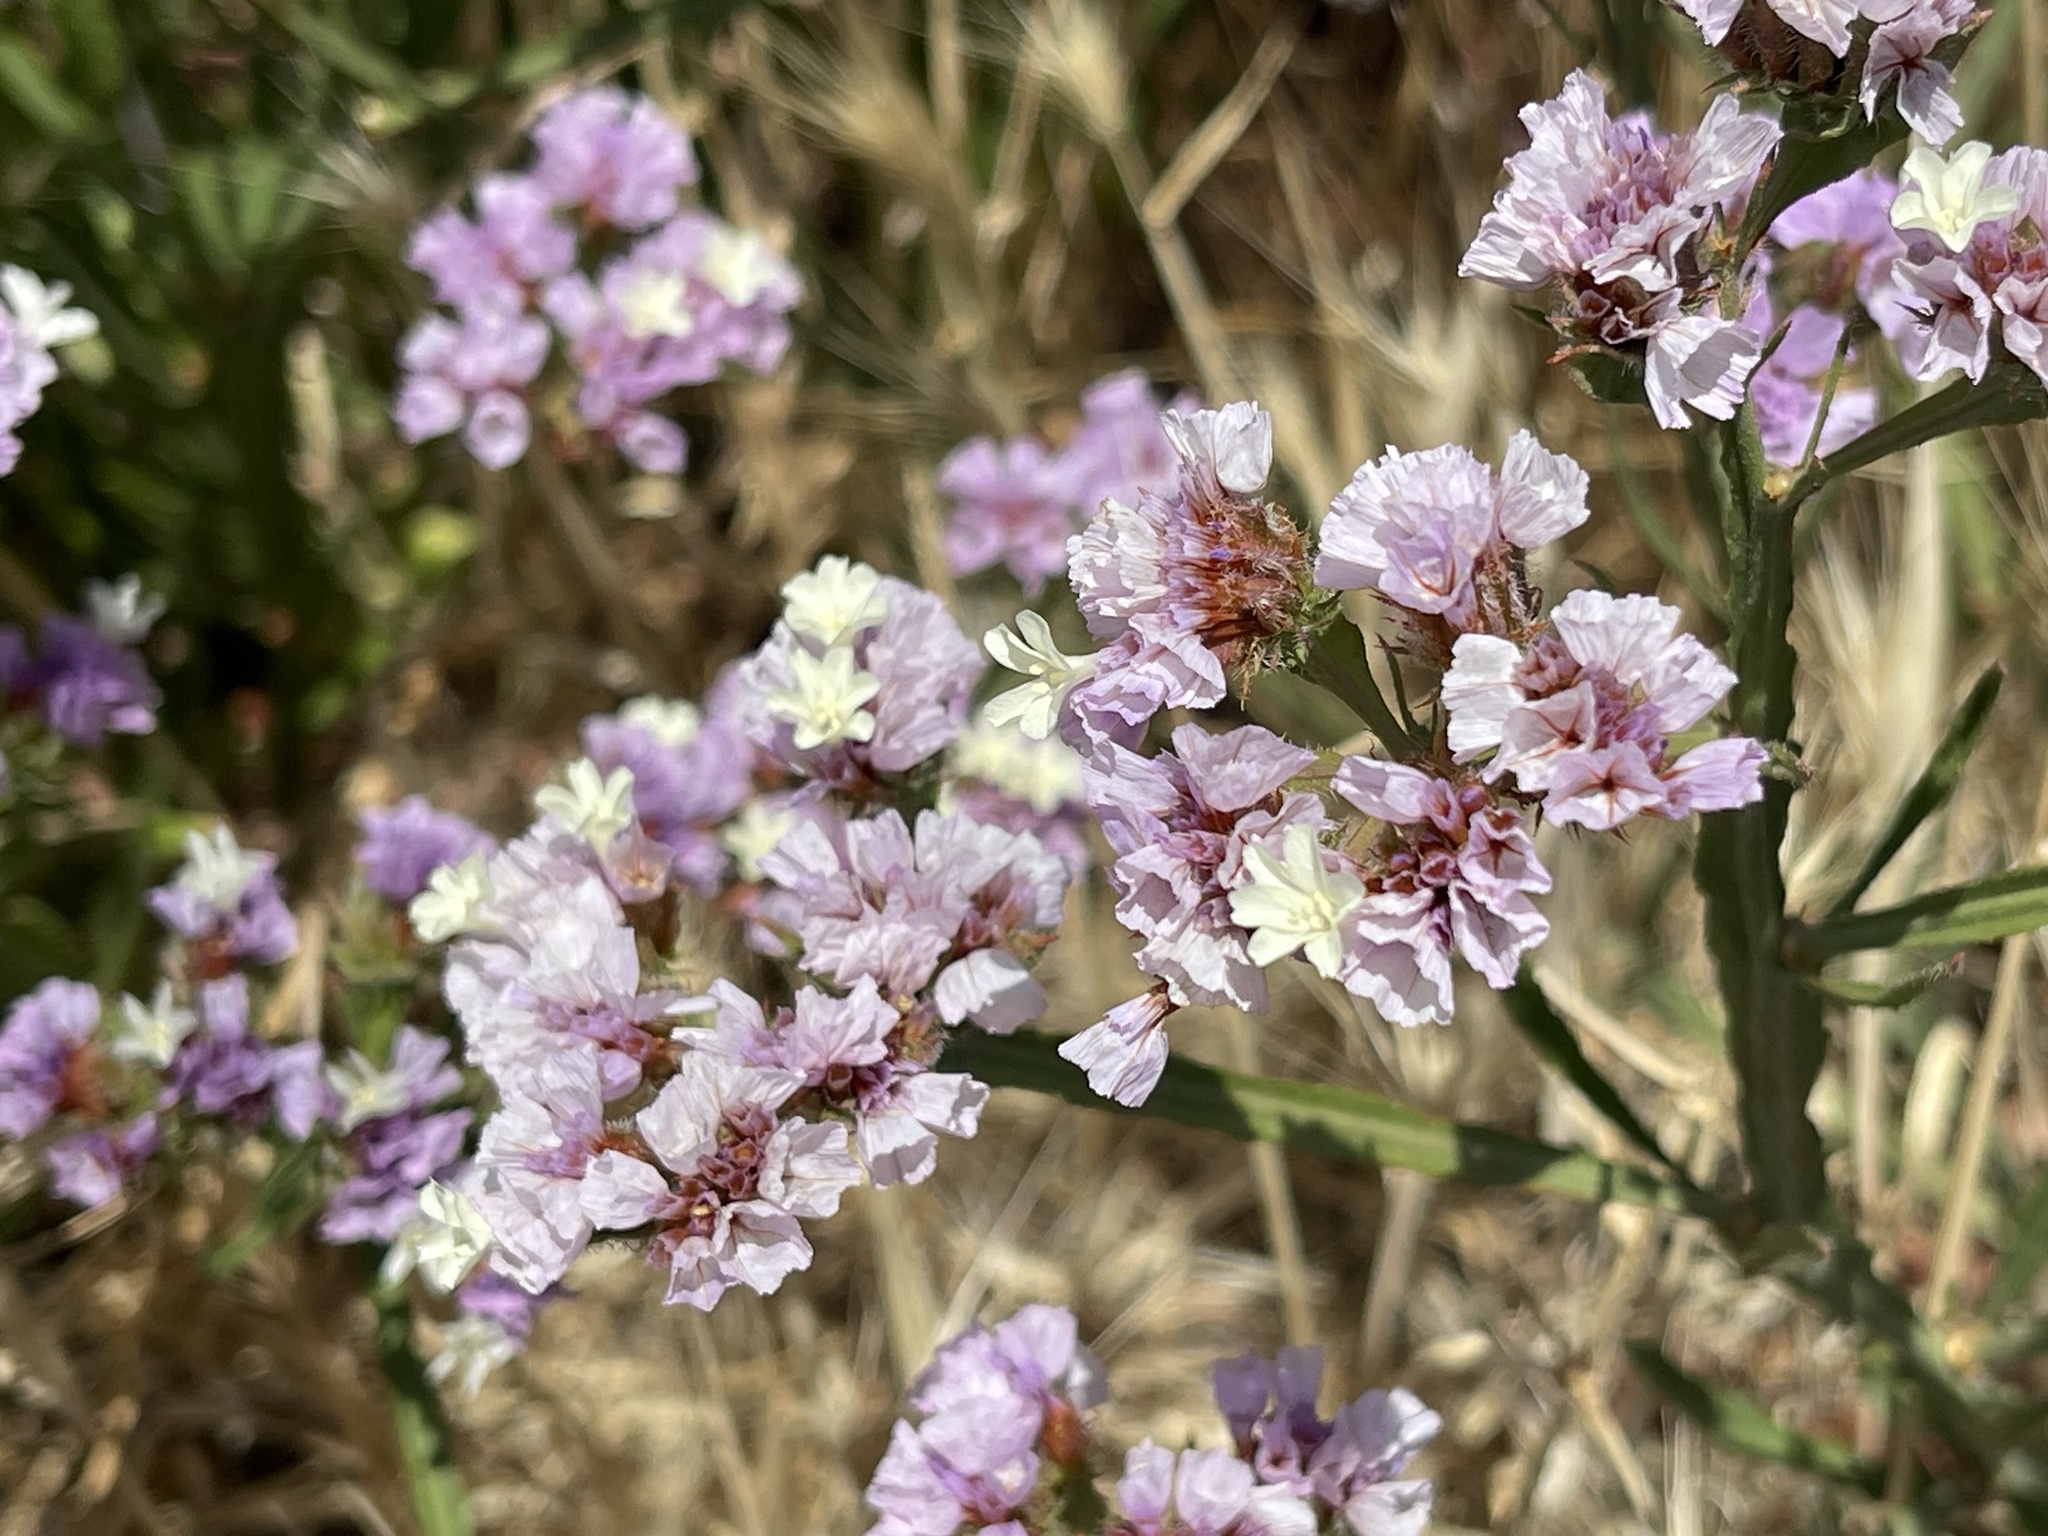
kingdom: Plantae
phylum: Tracheophyta
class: Magnoliopsida
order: Caryophyllales
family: Plumbaginaceae
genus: Limonium
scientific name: Limonium sinuatum
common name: Statice
